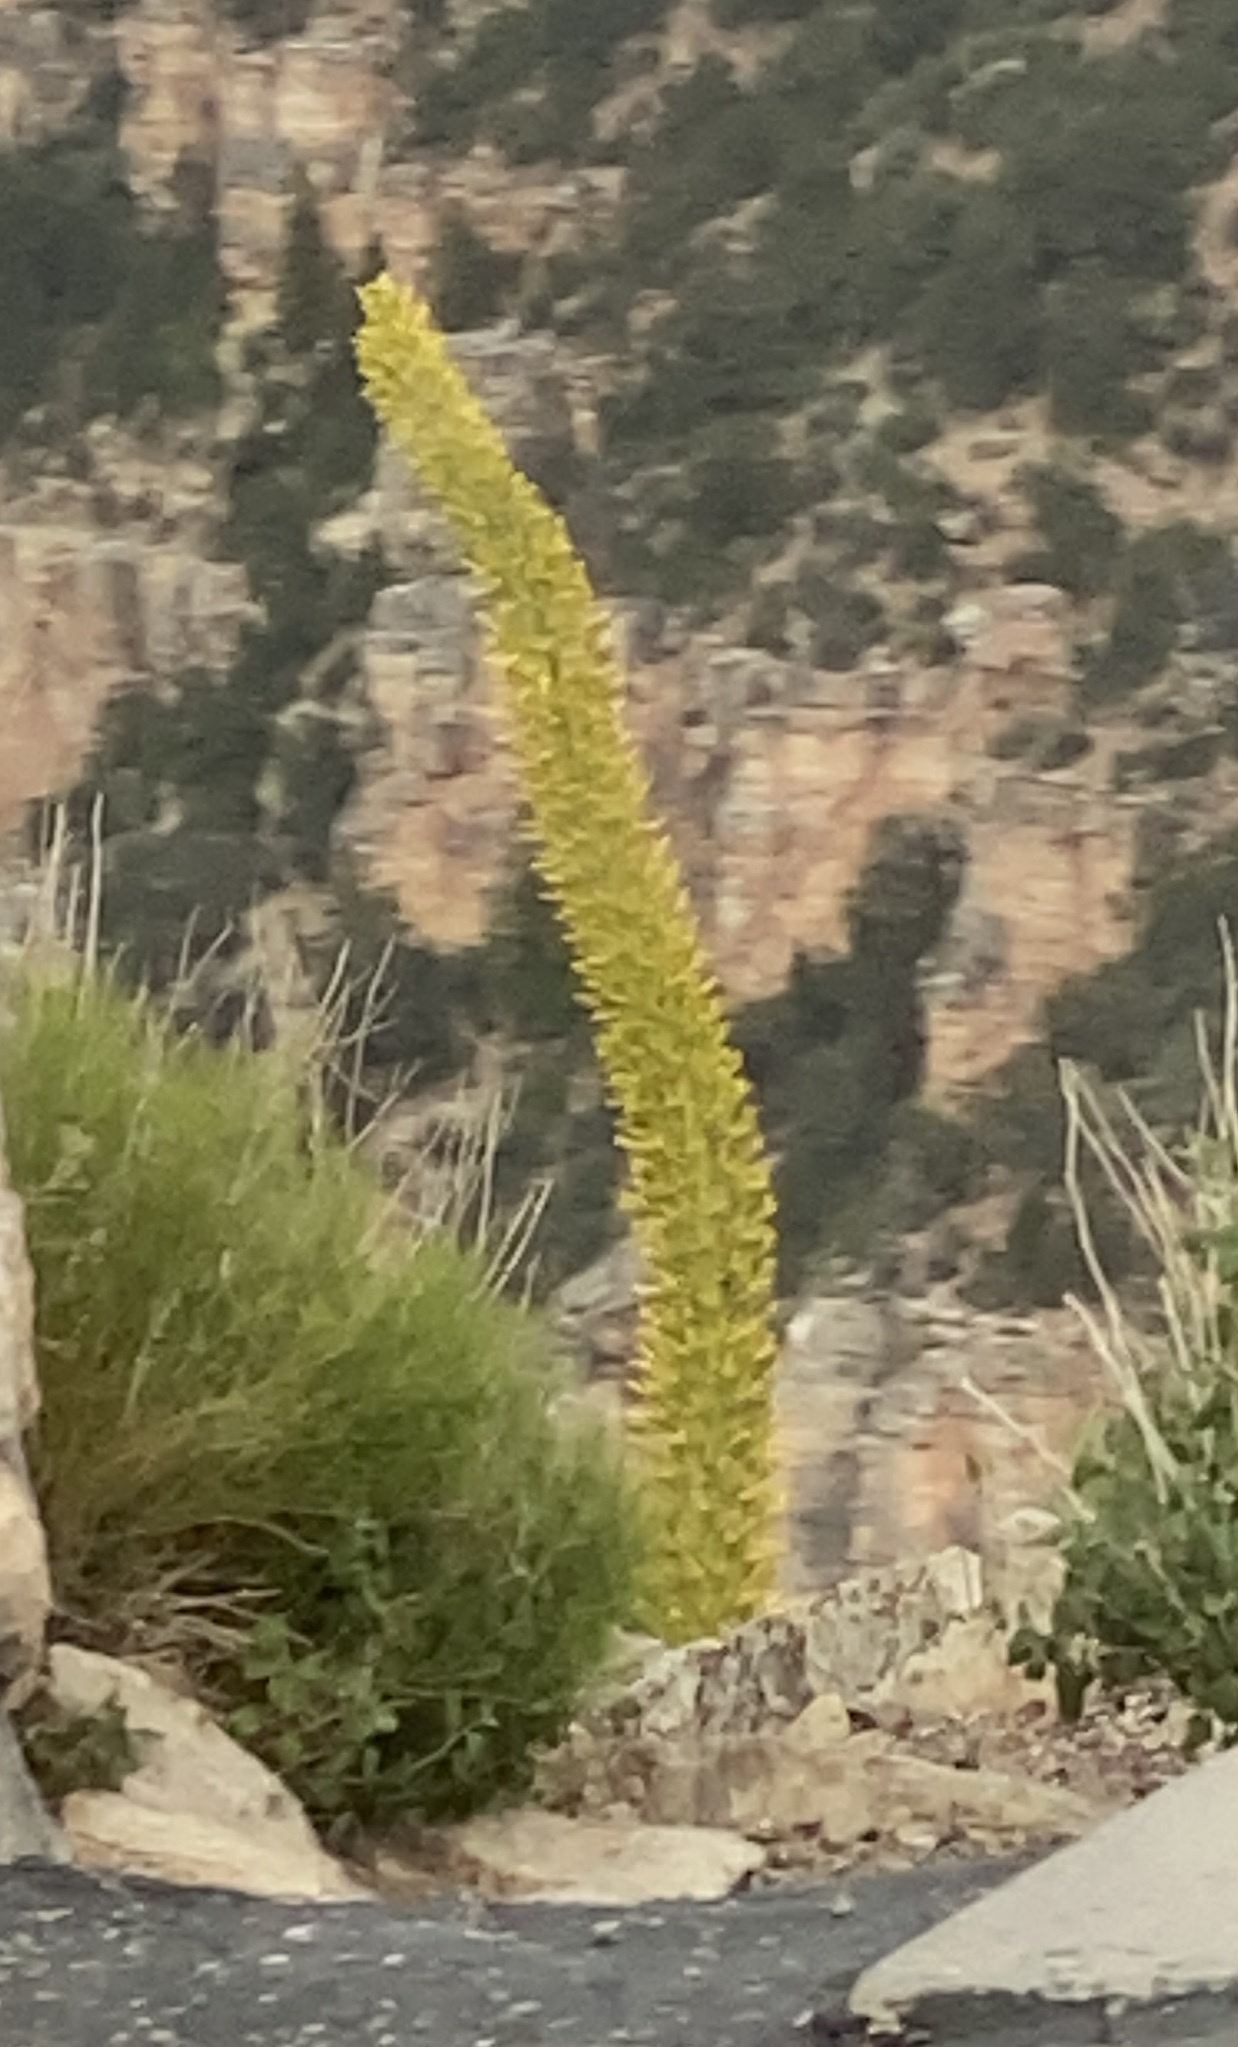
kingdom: Plantae
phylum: Tracheophyta
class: Liliopsida
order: Asparagales
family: Asparagaceae
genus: Agave
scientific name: Agave utahensis
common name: Utah agave
